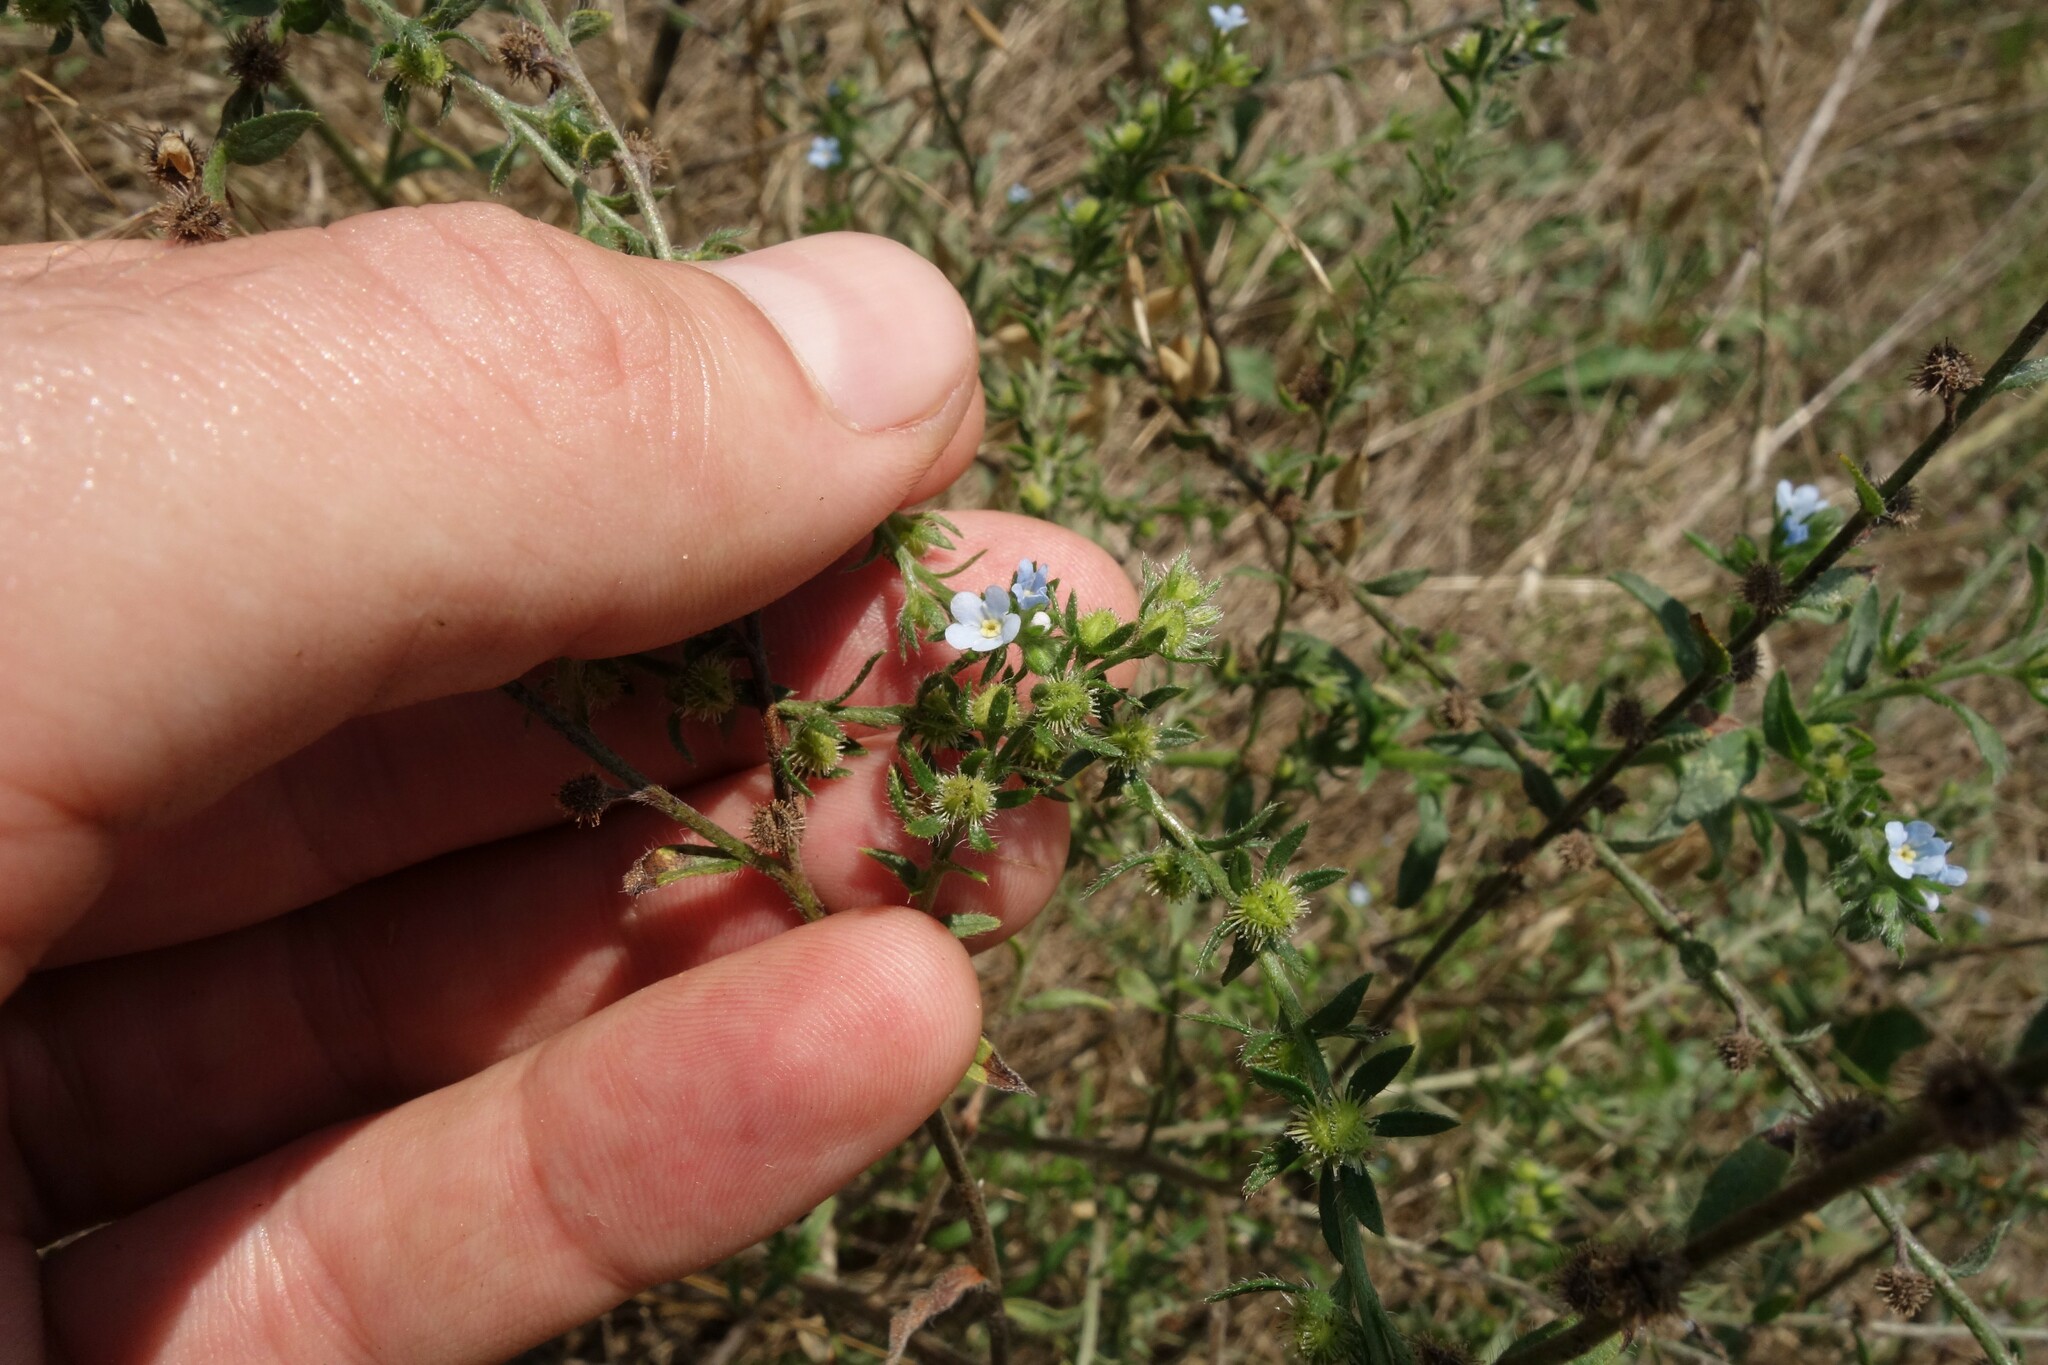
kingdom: Plantae
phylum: Tracheophyta
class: Magnoliopsida
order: Boraginales
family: Boraginaceae
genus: Lappula
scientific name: Lappula squarrosa
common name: European stickseed
